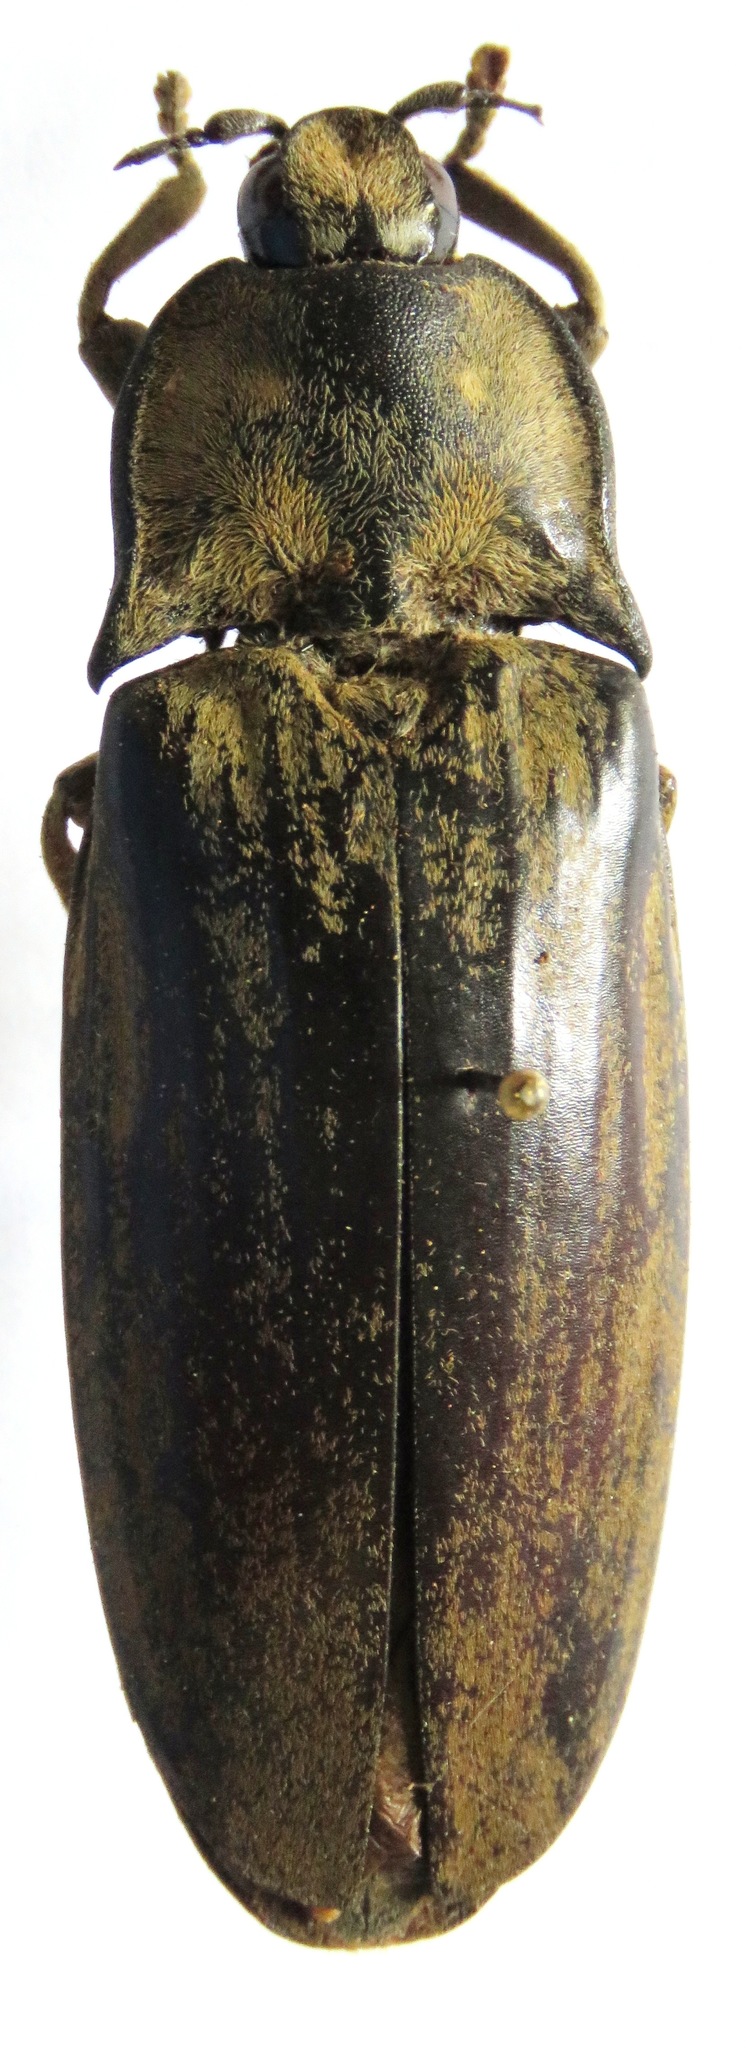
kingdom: Animalia
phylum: Arthropoda
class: Insecta
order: Coleoptera
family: Elateridae
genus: Tetralobus
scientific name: Tetralobus flabellicornis
